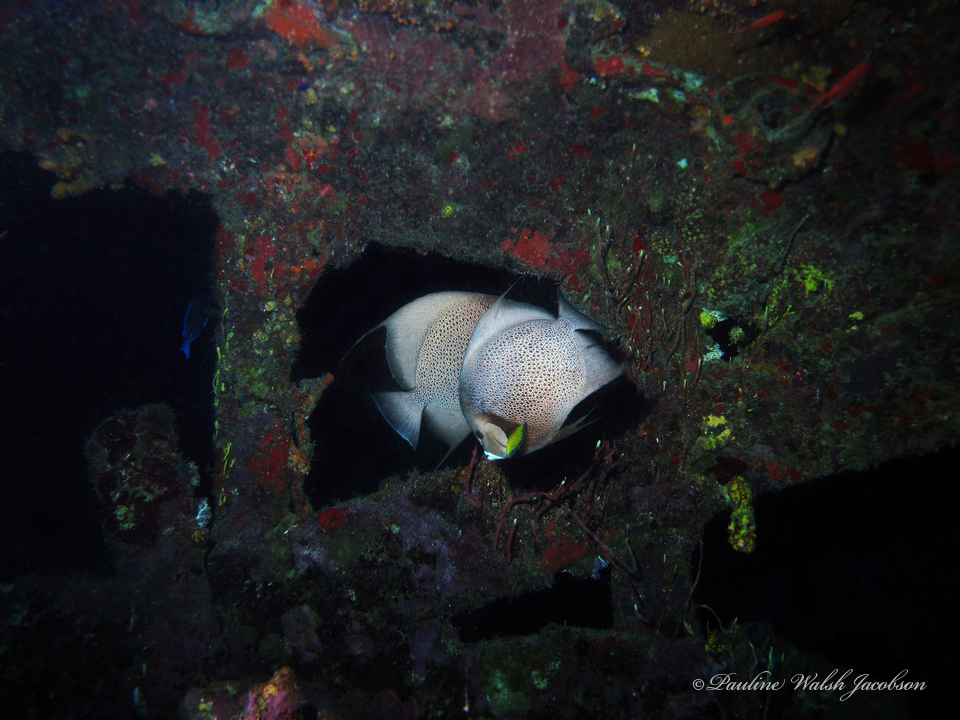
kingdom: Animalia
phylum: Chordata
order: Perciformes
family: Pomacanthidae
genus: Pomacanthus
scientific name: Pomacanthus arcuatus
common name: Gray angelfish
